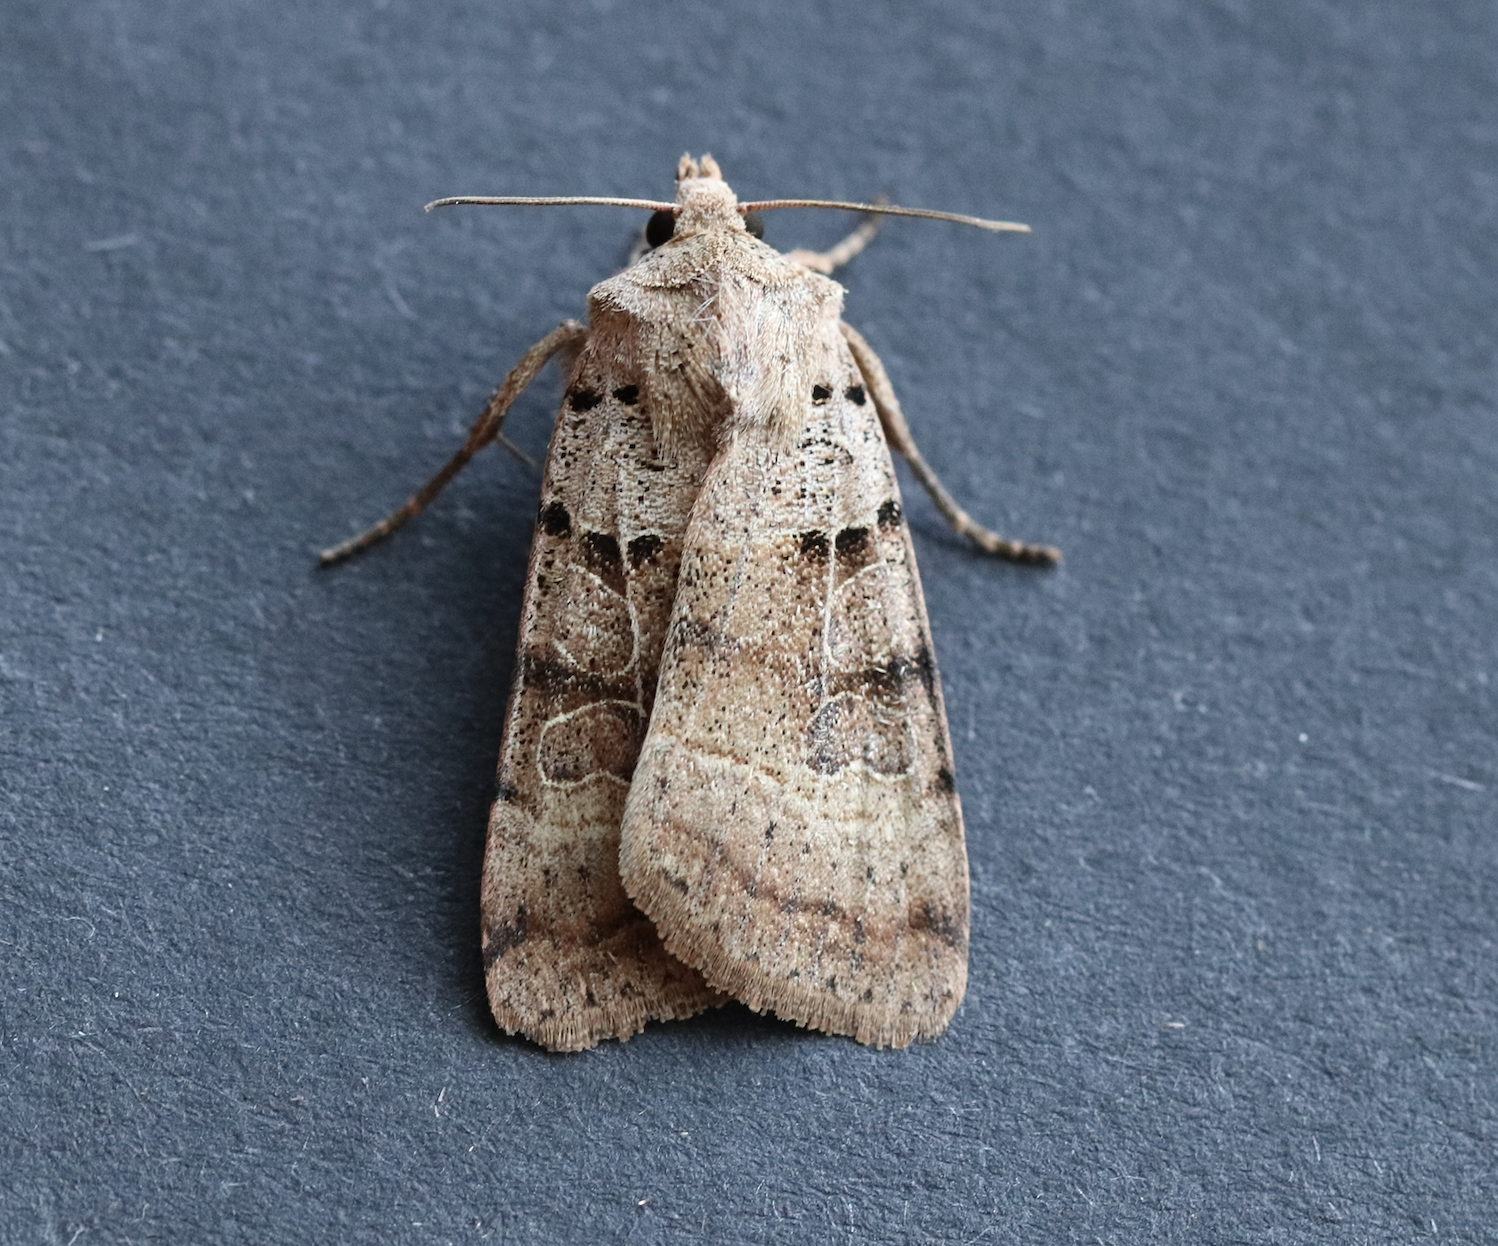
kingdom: Animalia
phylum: Arthropoda
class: Insecta
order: Lepidoptera
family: Noctuidae
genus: Eugnorisma
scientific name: Eugnorisma depuncta
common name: Plain clay
